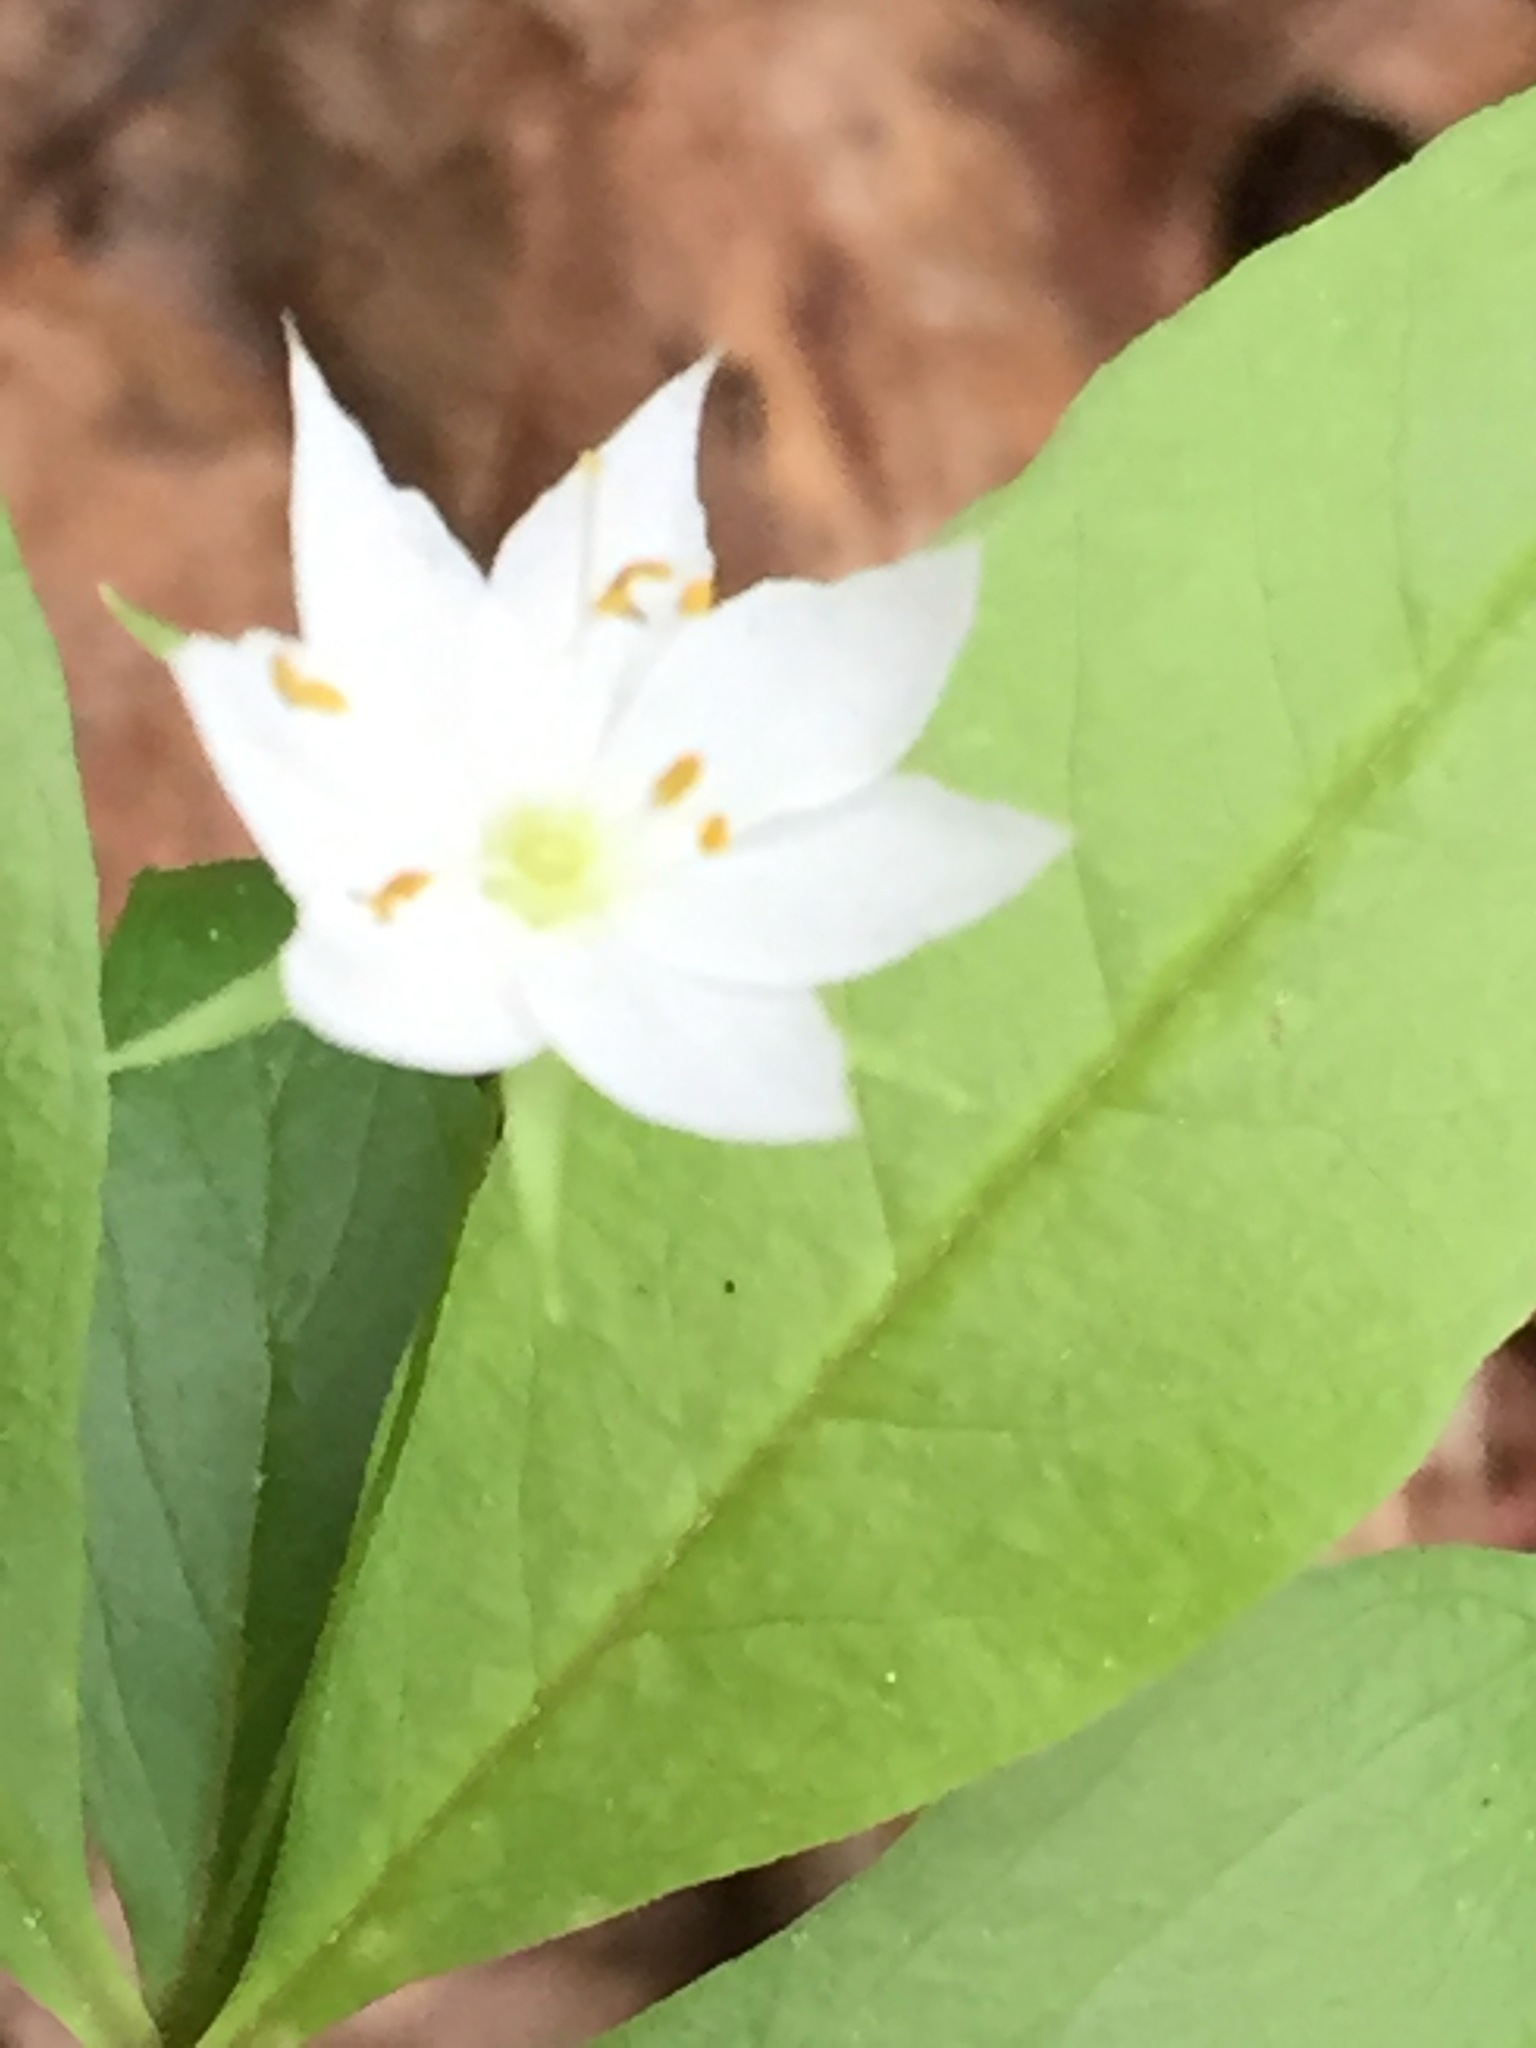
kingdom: Plantae
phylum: Tracheophyta
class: Magnoliopsida
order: Ericales
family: Primulaceae
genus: Lysimachia
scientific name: Lysimachia borealis
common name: American starflower
